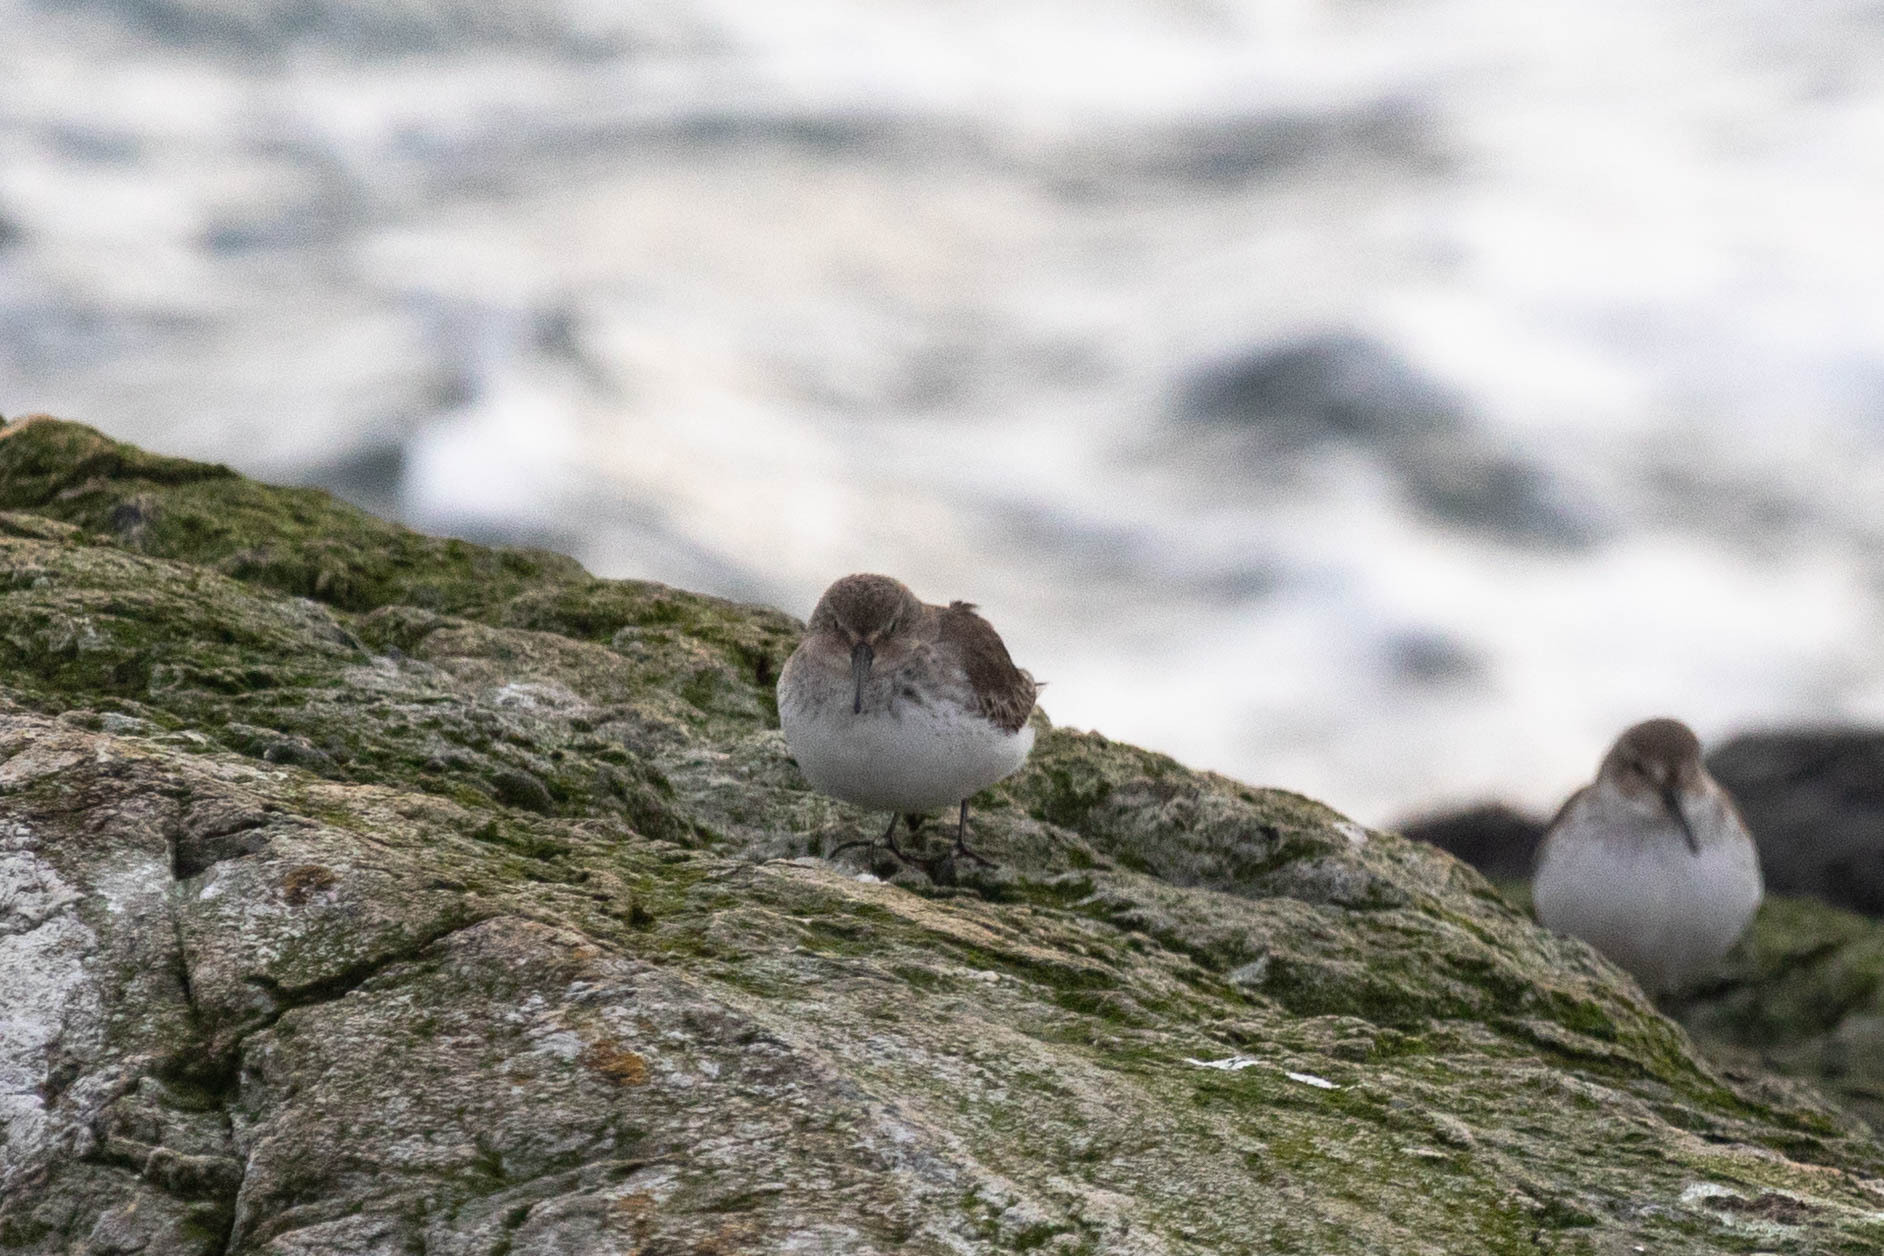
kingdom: Animalia
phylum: Chordata
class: Aves
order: Charadriiformes
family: Scolopacidae
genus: Calidris
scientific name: Calidris alpina
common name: Dunlin
